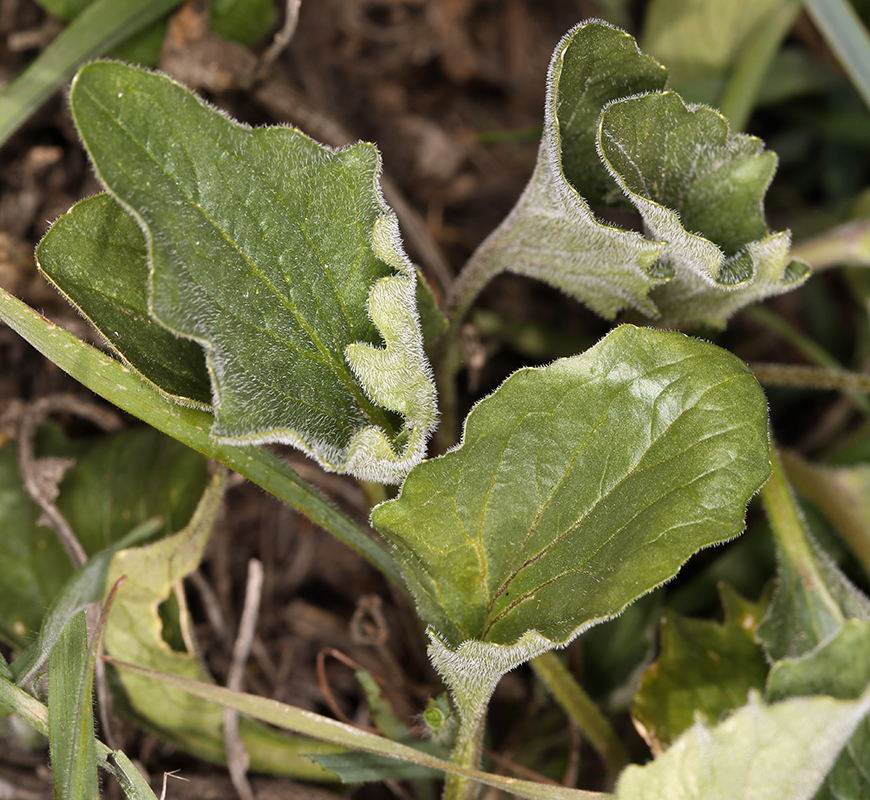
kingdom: Plantae
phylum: Tracheophyta
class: Magnoliopsida
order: Malpighiales
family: Violaceae
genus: Viola
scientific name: Viola quercetorum
